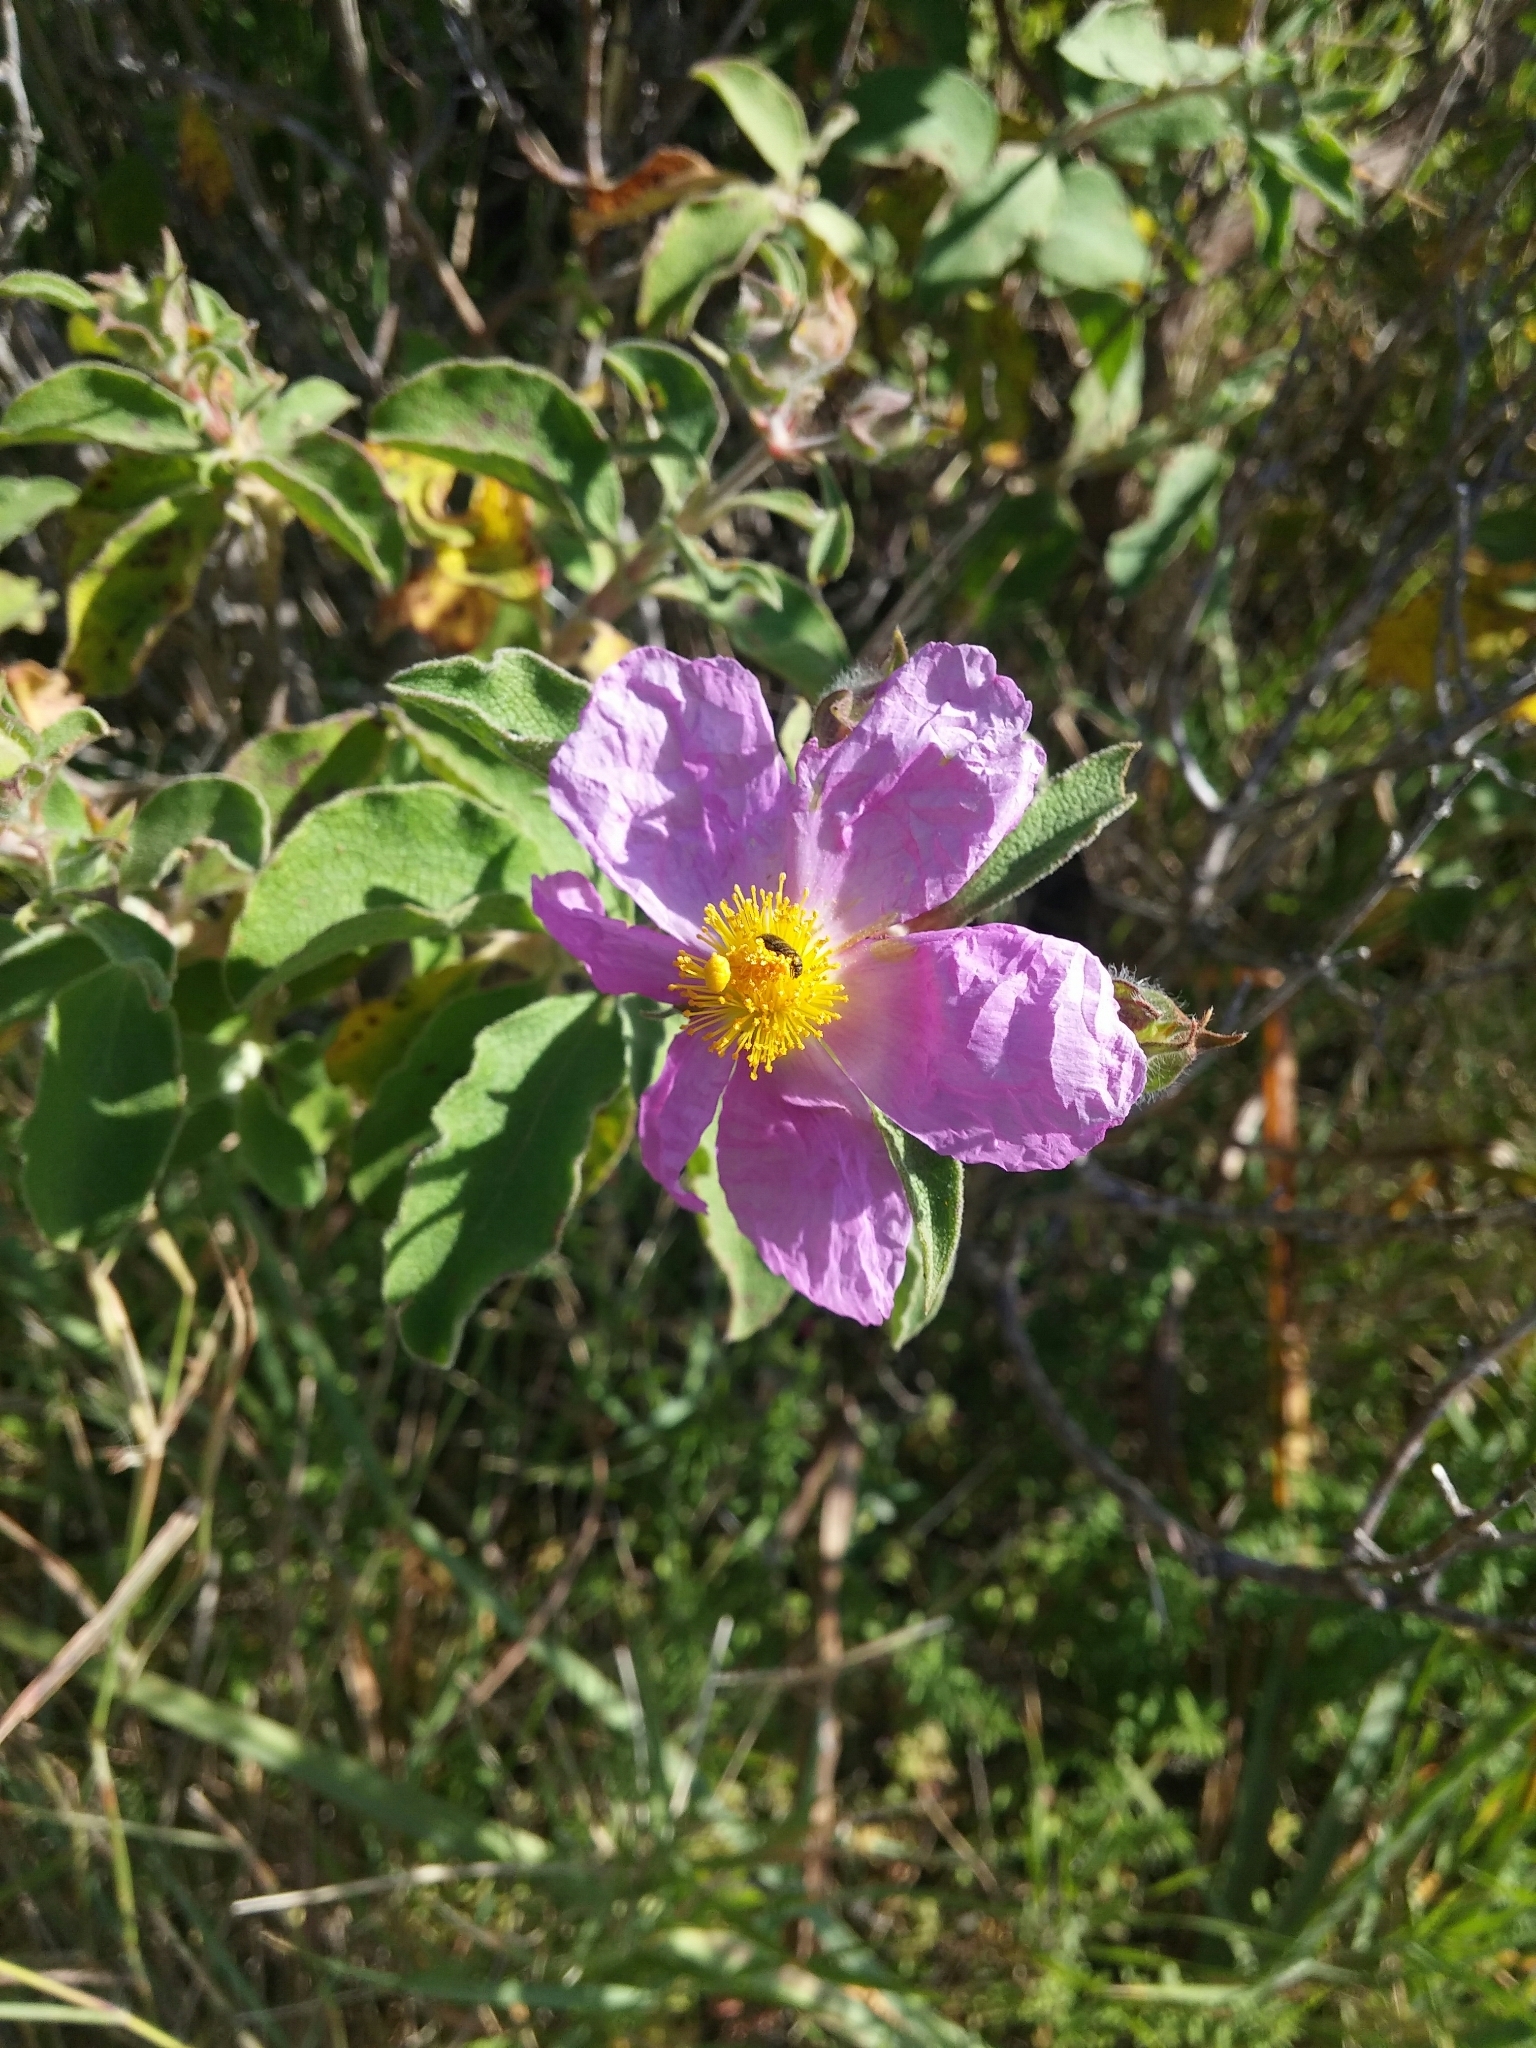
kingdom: Plantae
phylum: Tracheophyta
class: Magnoliopsida
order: Malvales
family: Cistaceae
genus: Cistus
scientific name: Cistus creticus
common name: Cretan rockrose
